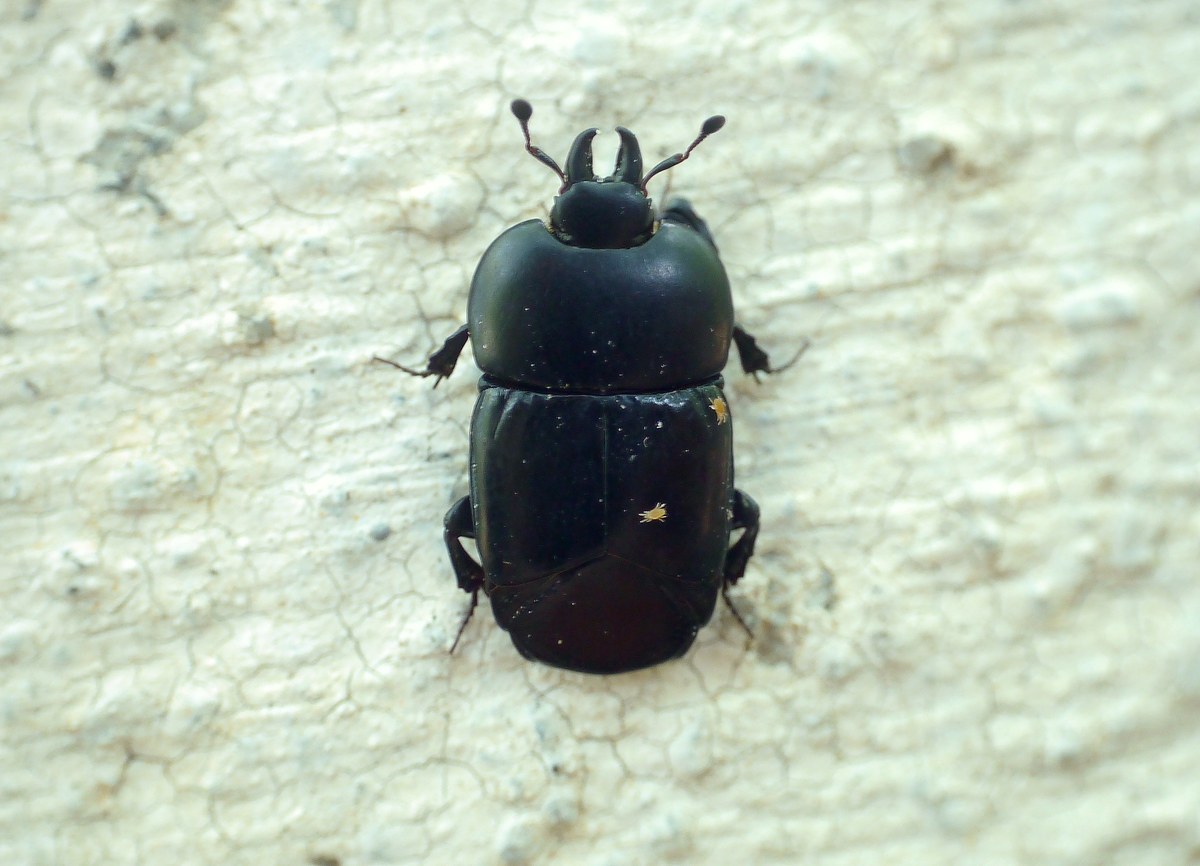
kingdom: Animalia
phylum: Arthropoda
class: Insecta
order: Coleoptera
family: Histeridae
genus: Hololepta
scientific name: Hololepta plana
